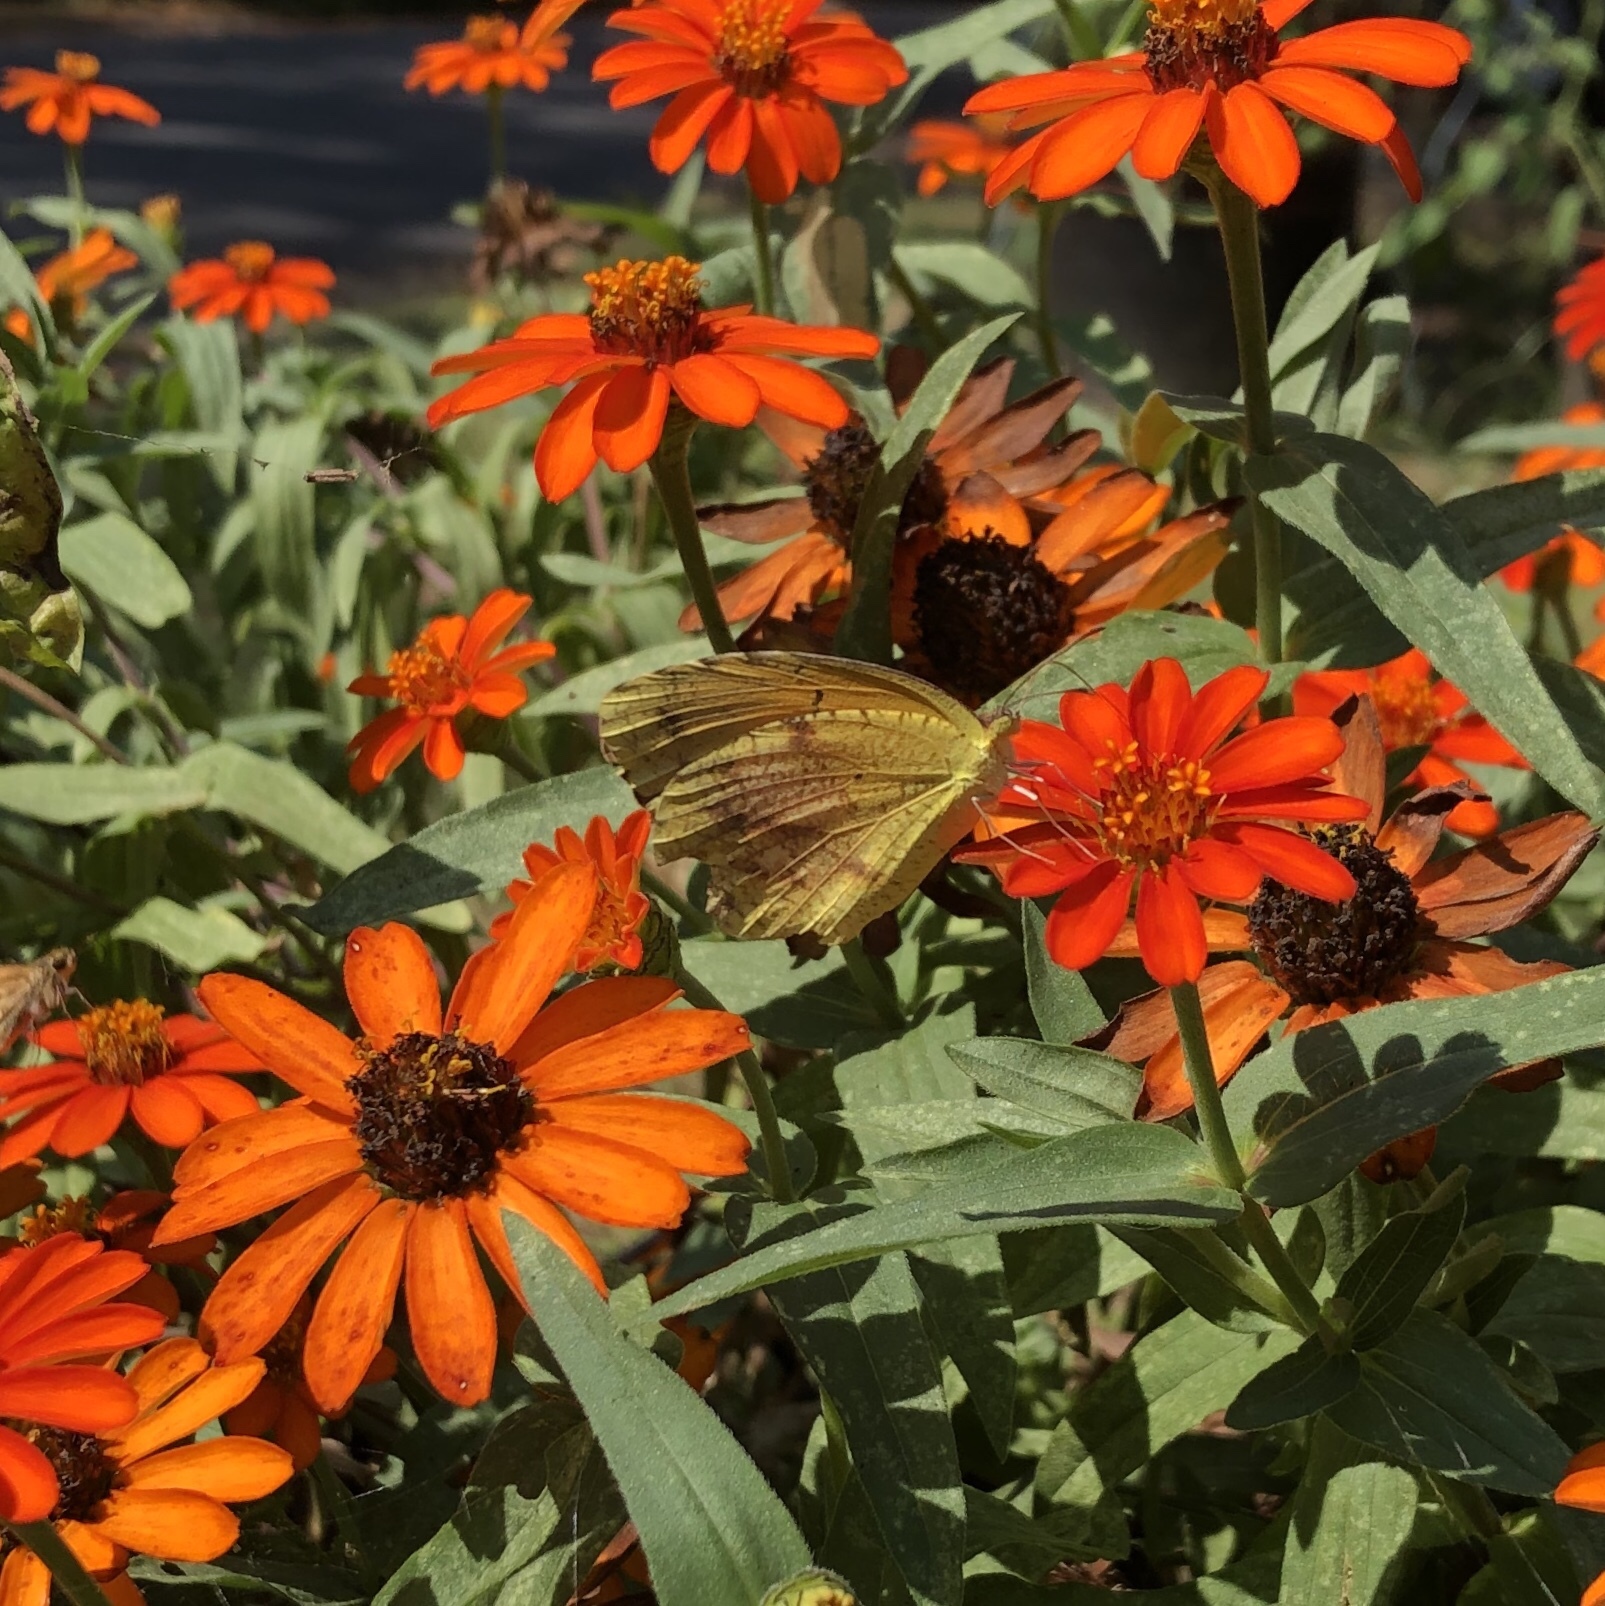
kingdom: Animalia
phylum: Arthropoda
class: Insecta
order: Lepidoptera
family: Pieridae
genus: Abaeis
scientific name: Abaeis nicippe
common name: Sleepy orange
